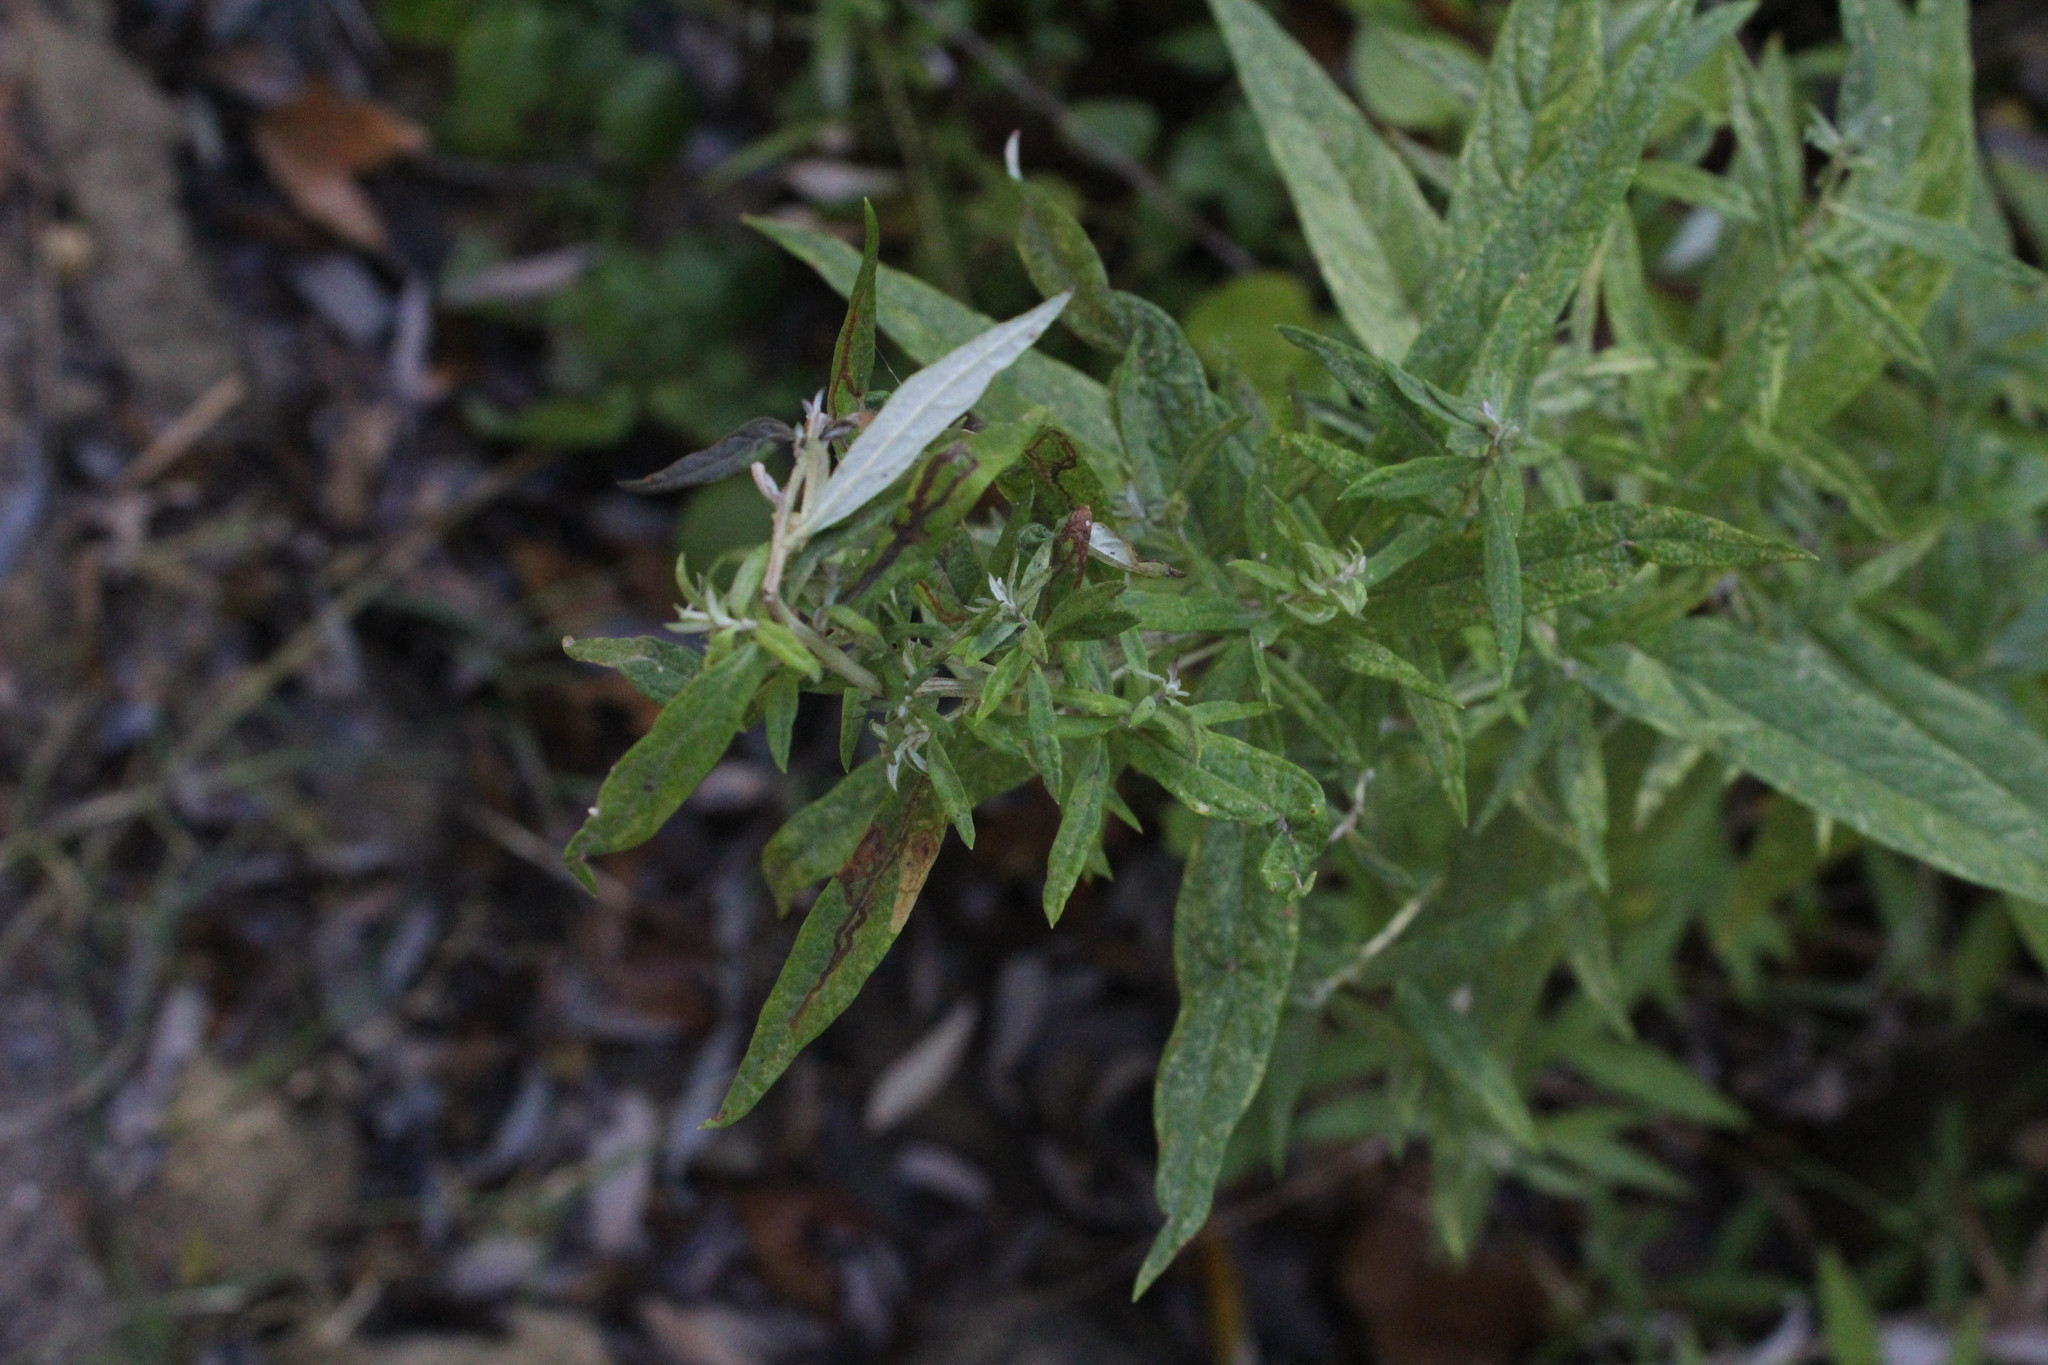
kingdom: Plantae
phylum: Tracheophyta
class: Magnoliopsida
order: Asterales
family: Asteraceae
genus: Artemisia
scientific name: Artemisia douglasiana
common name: Northwest mugwort
